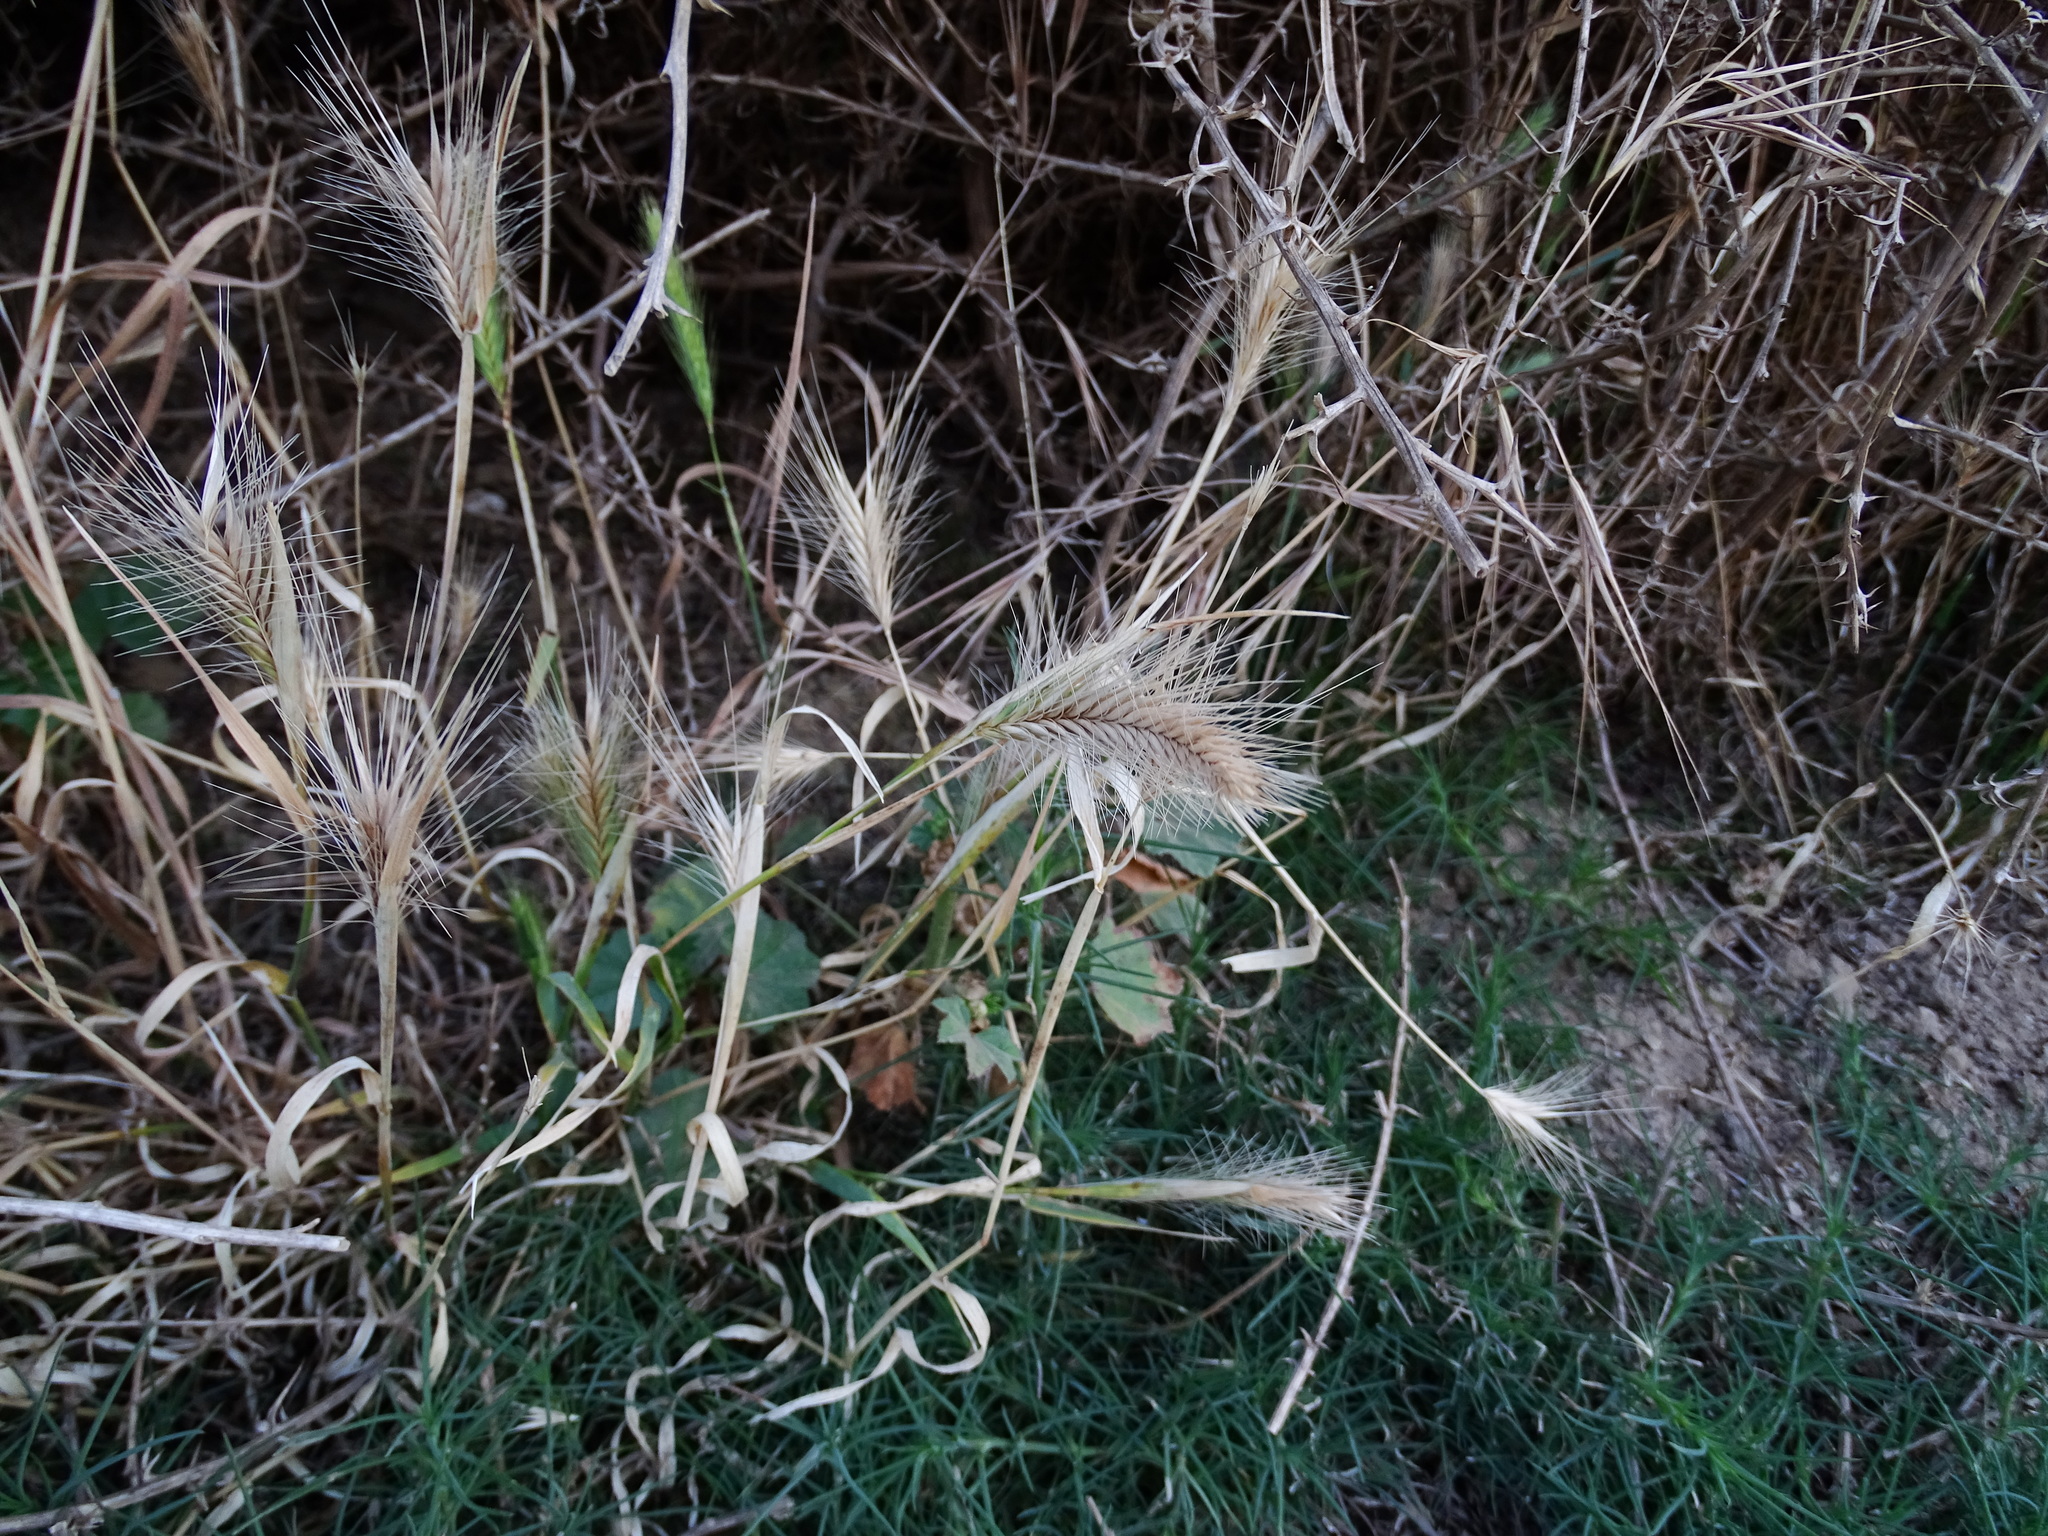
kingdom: Plantae
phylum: Tracheophyta
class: Liliopsida
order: Poales
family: Poaceae
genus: Hordeum
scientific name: Hordeum murinum
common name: Wall barley
